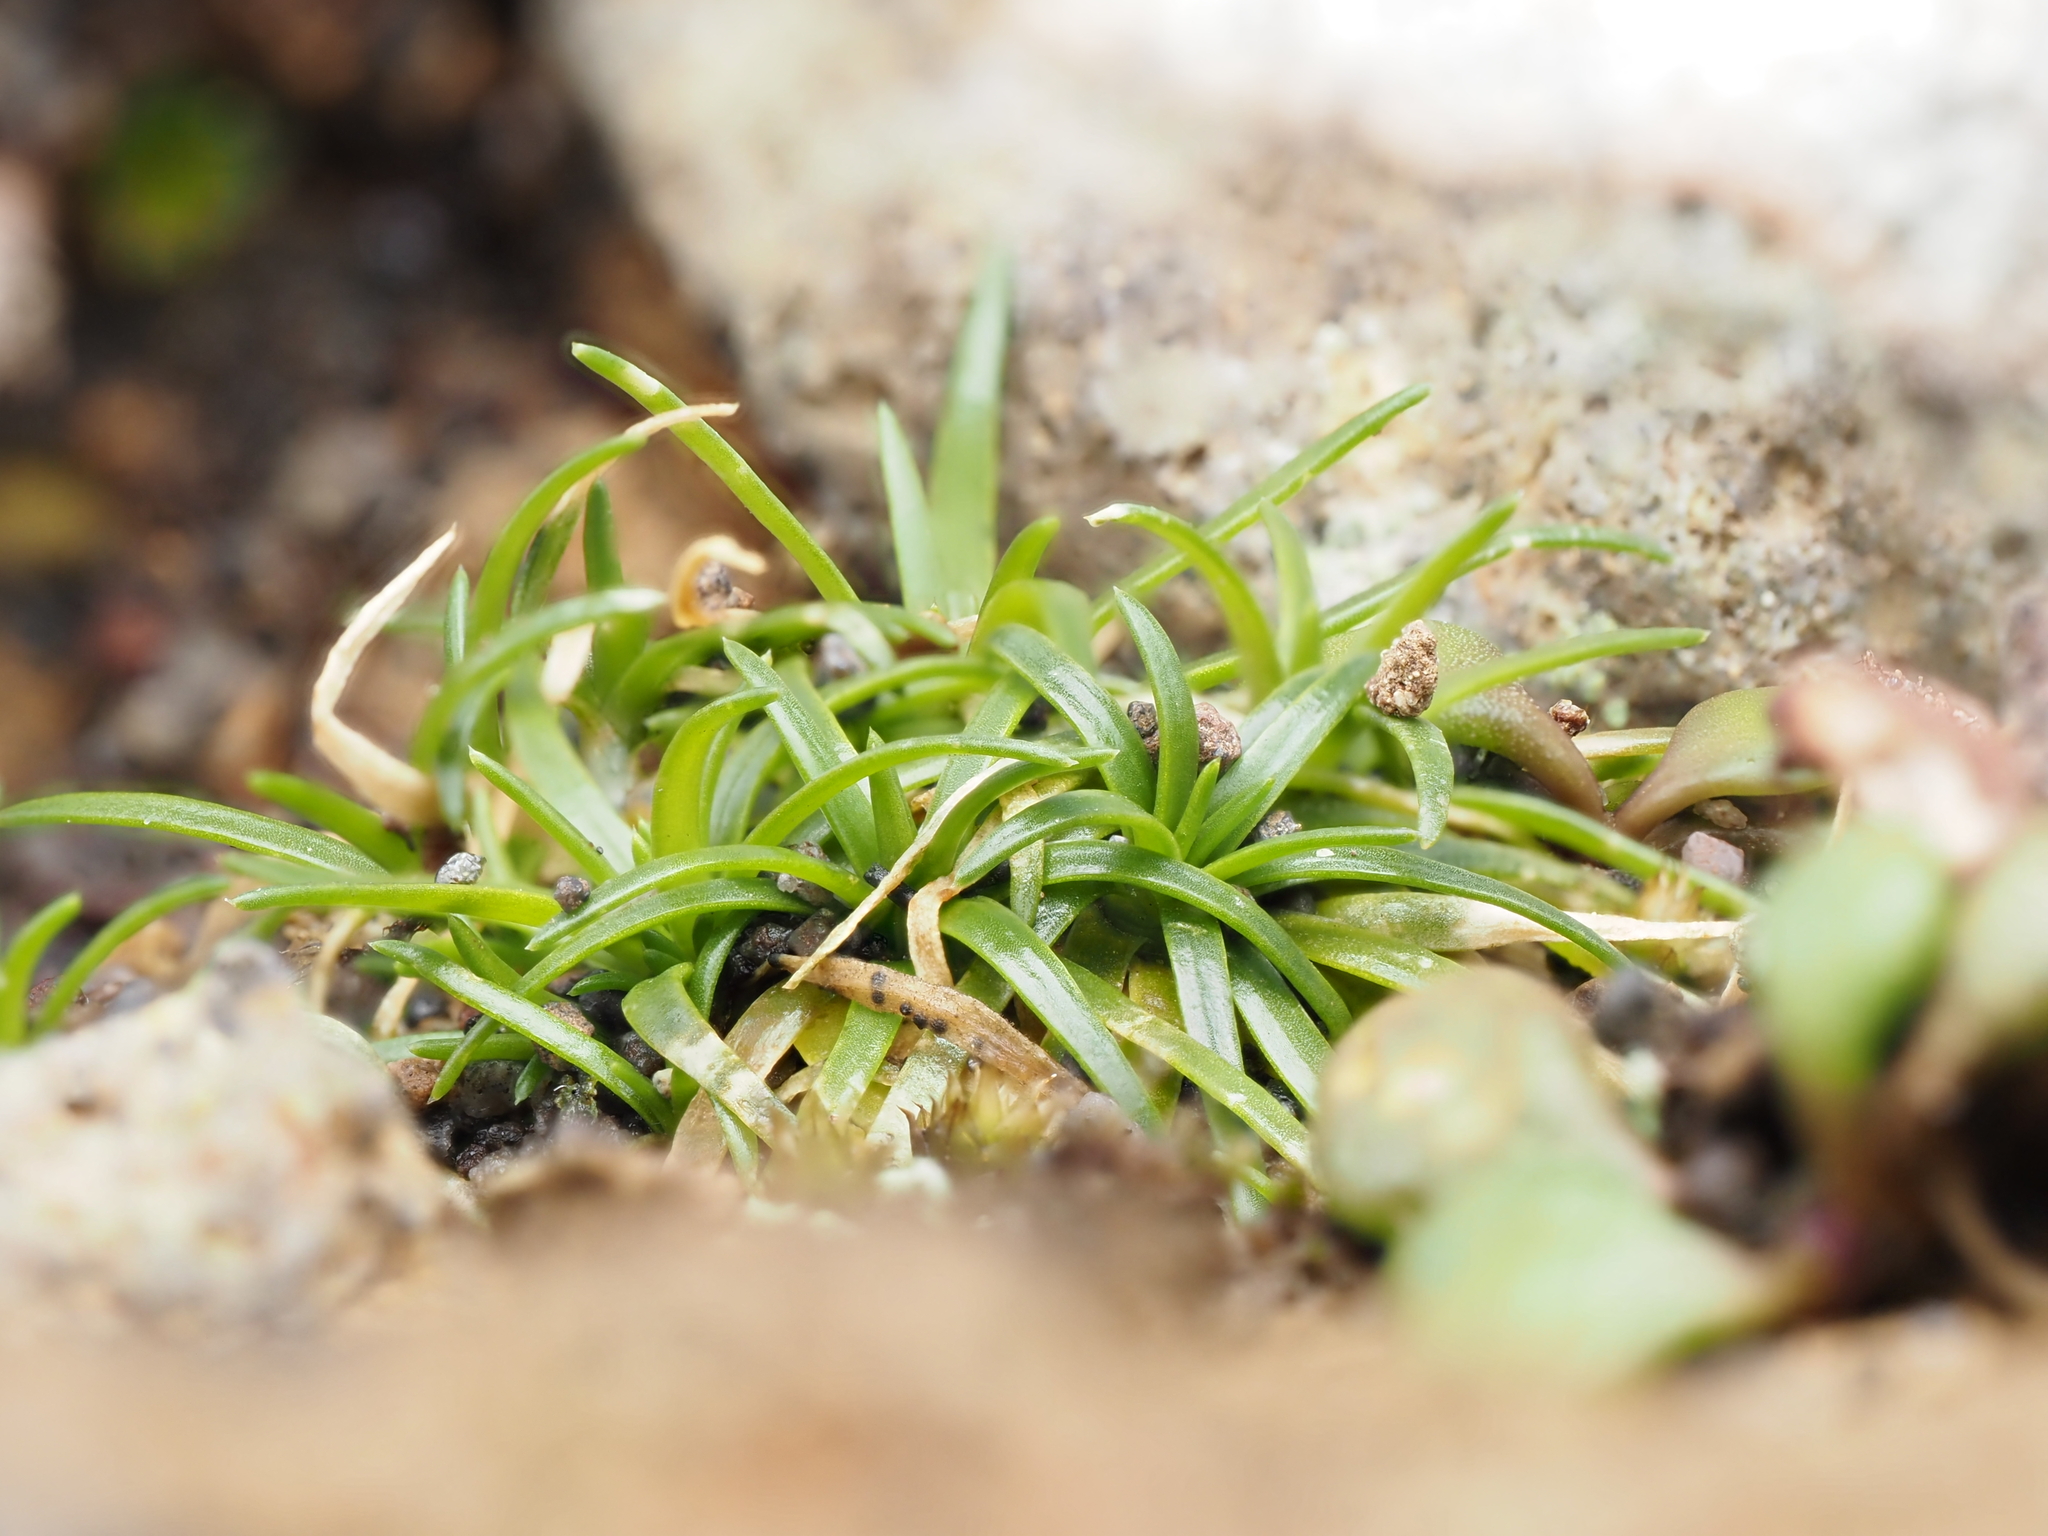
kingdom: Plantae
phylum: Tracheophyta
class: Magnoliopsida
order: Caryophyllales
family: Caryophyllaceae
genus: Colobanthus
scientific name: Colobanthus muelleri
